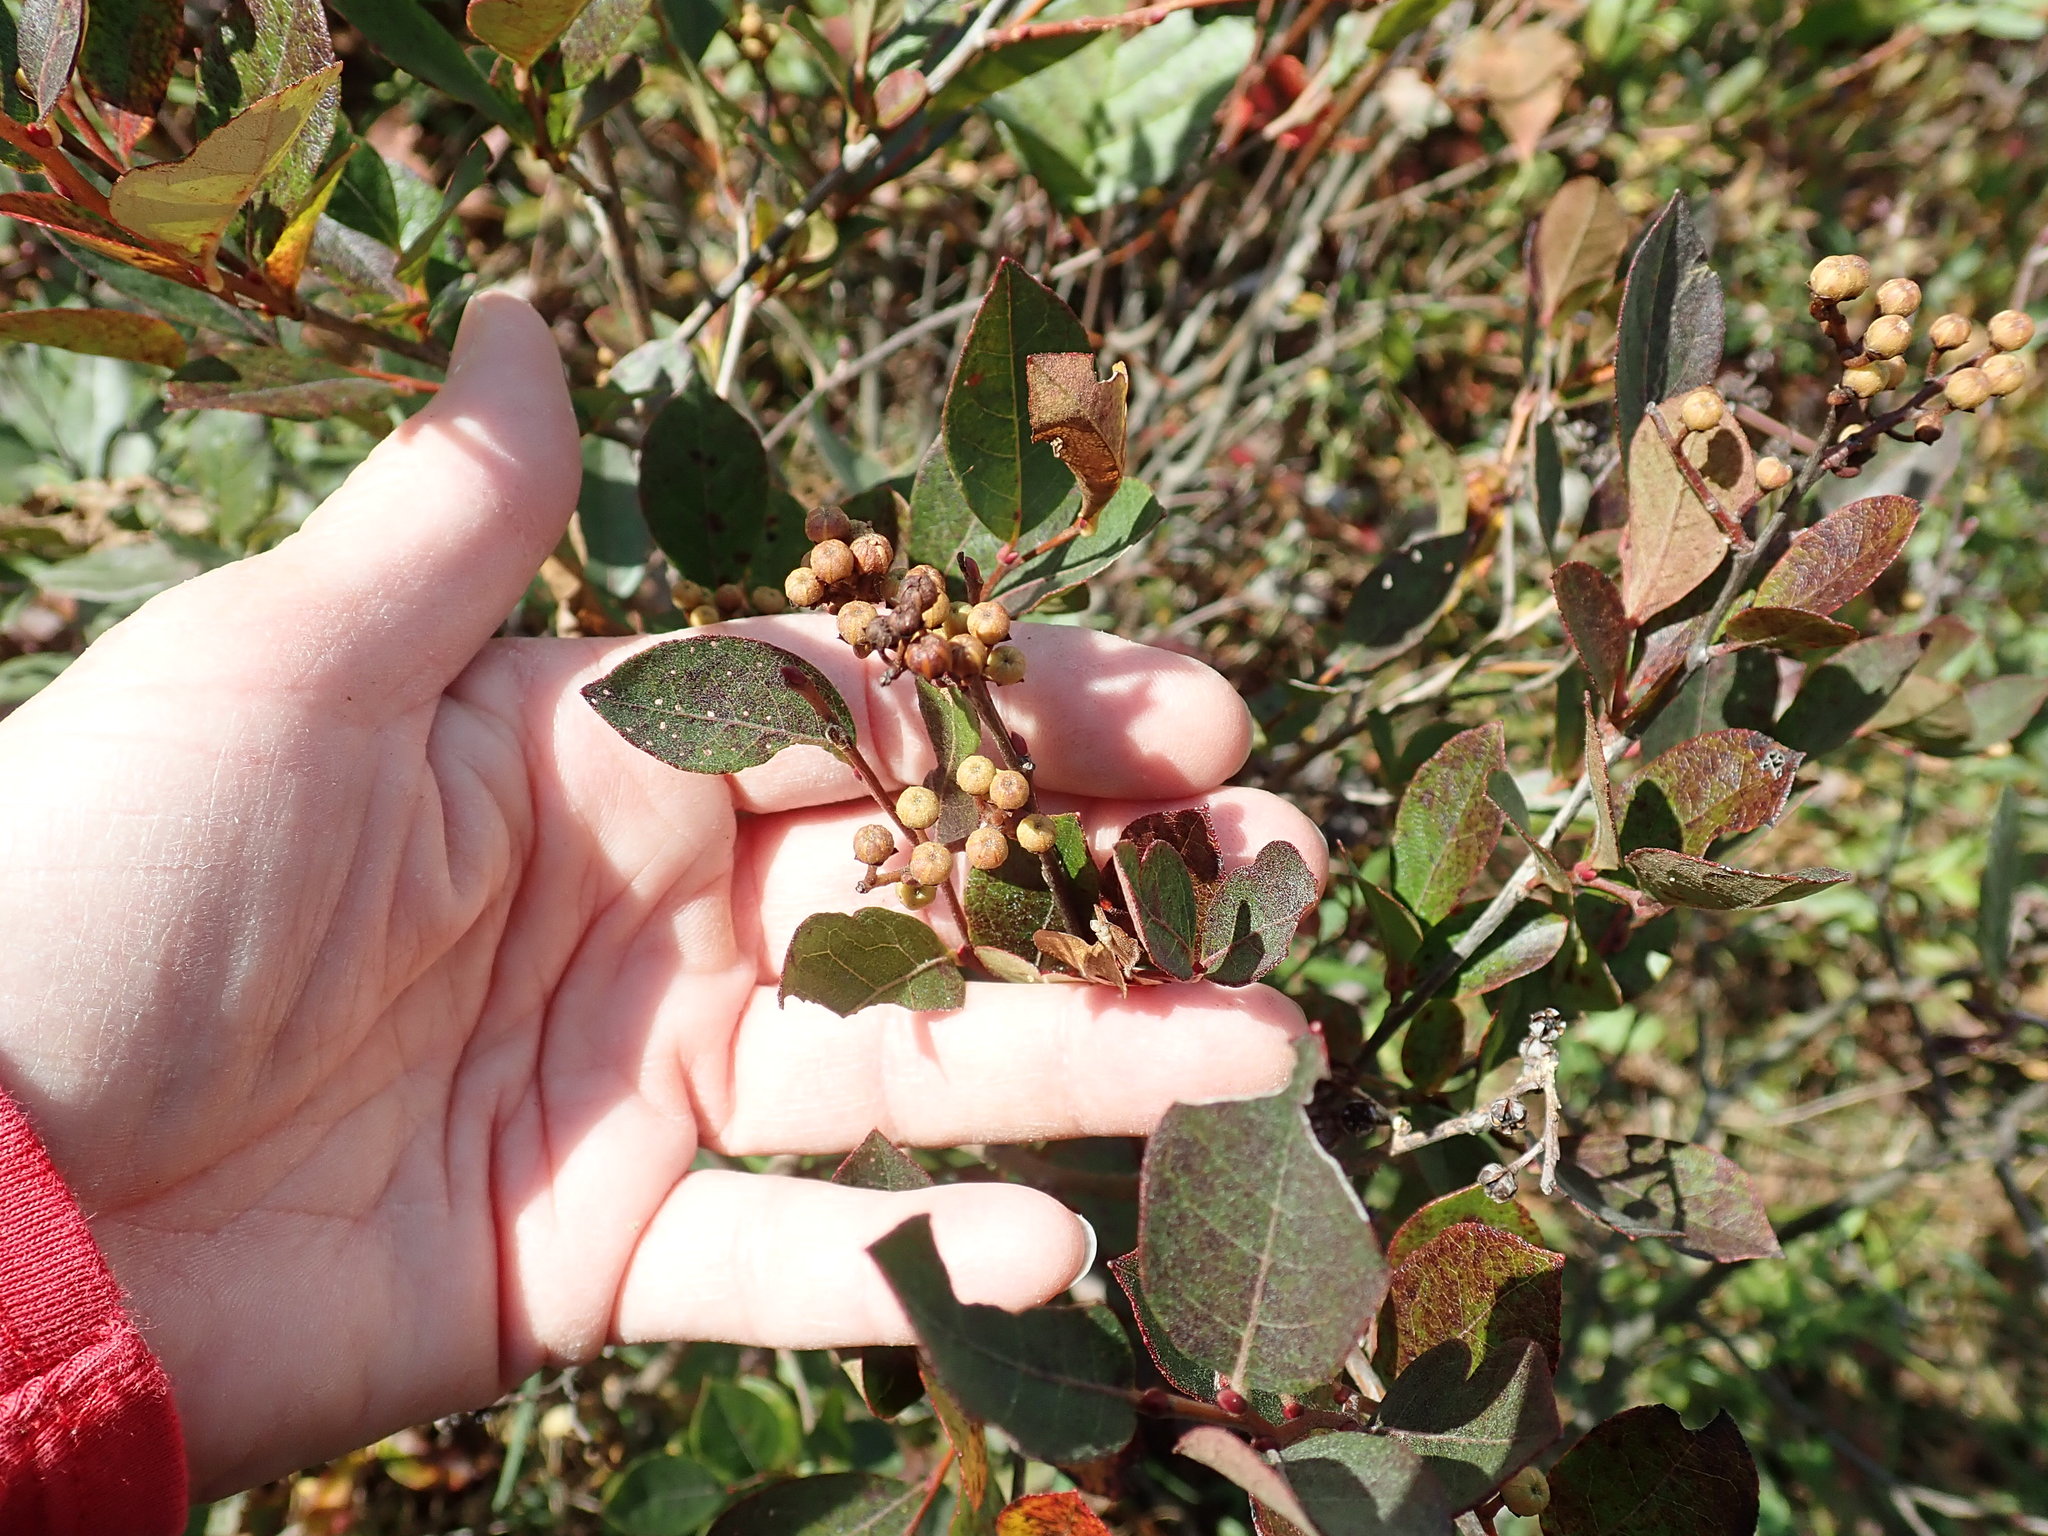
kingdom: Plantae
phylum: Tracheophyta
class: Magnoliopsida
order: Ericales
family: Ericaceae
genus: Lyonia
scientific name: Lyonia ligustrina
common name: Maleberry
